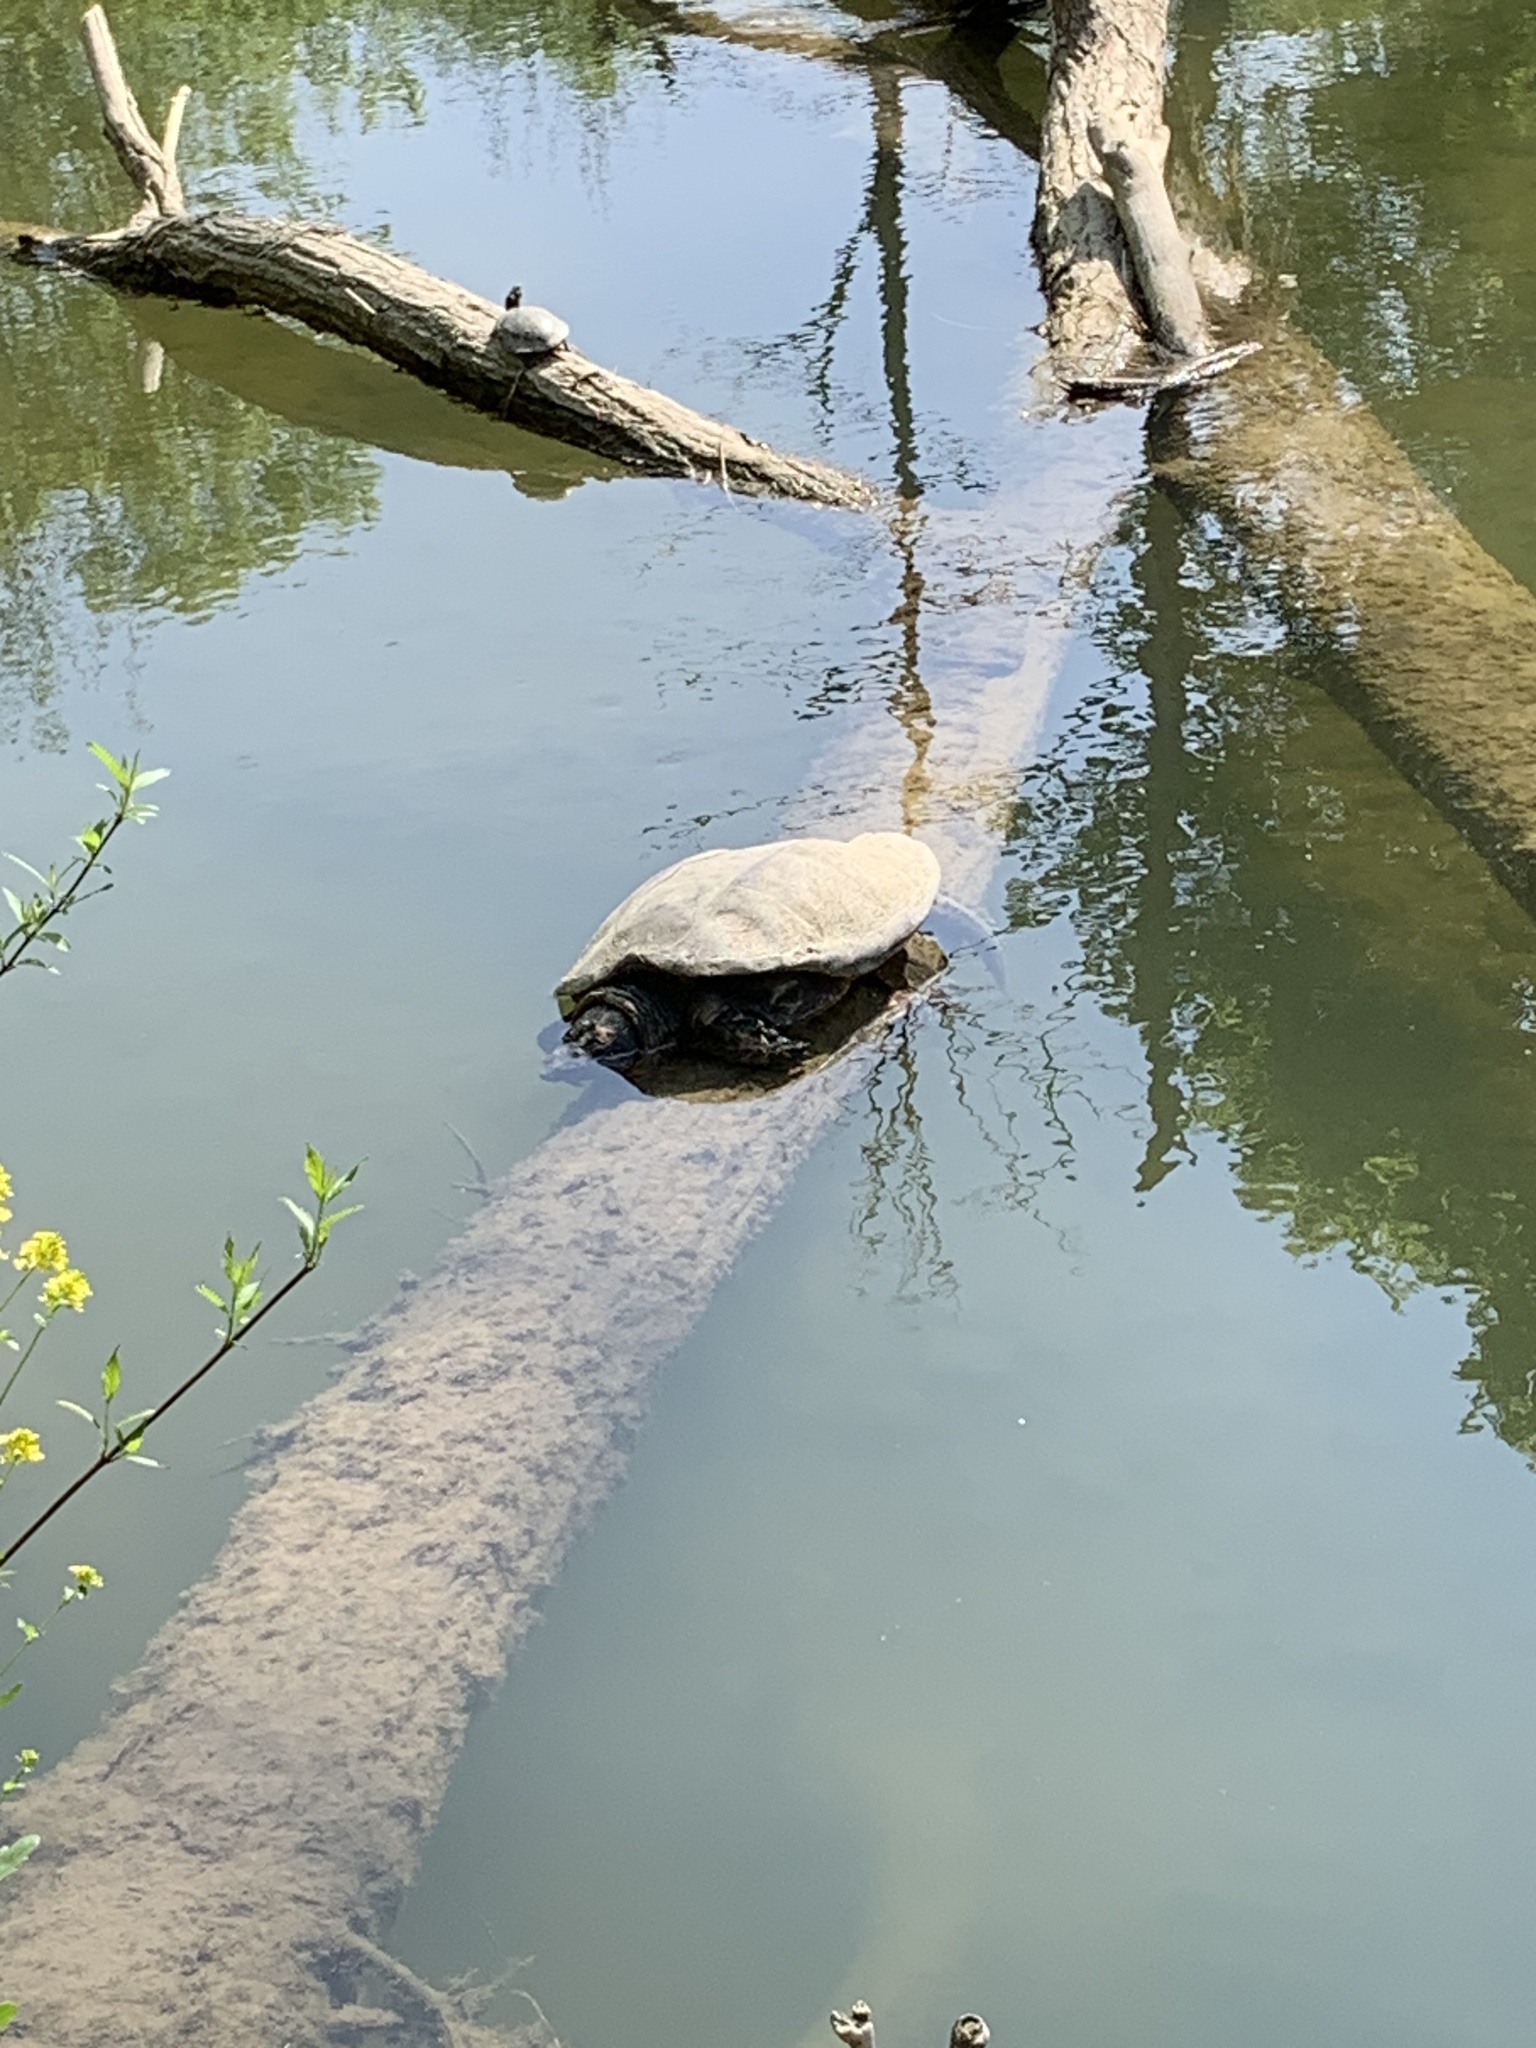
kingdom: Animalia
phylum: Chordata
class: Testudines
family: Chelydridae
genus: Chelydra
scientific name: Chelydra serpentina
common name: Common snapping turtle
